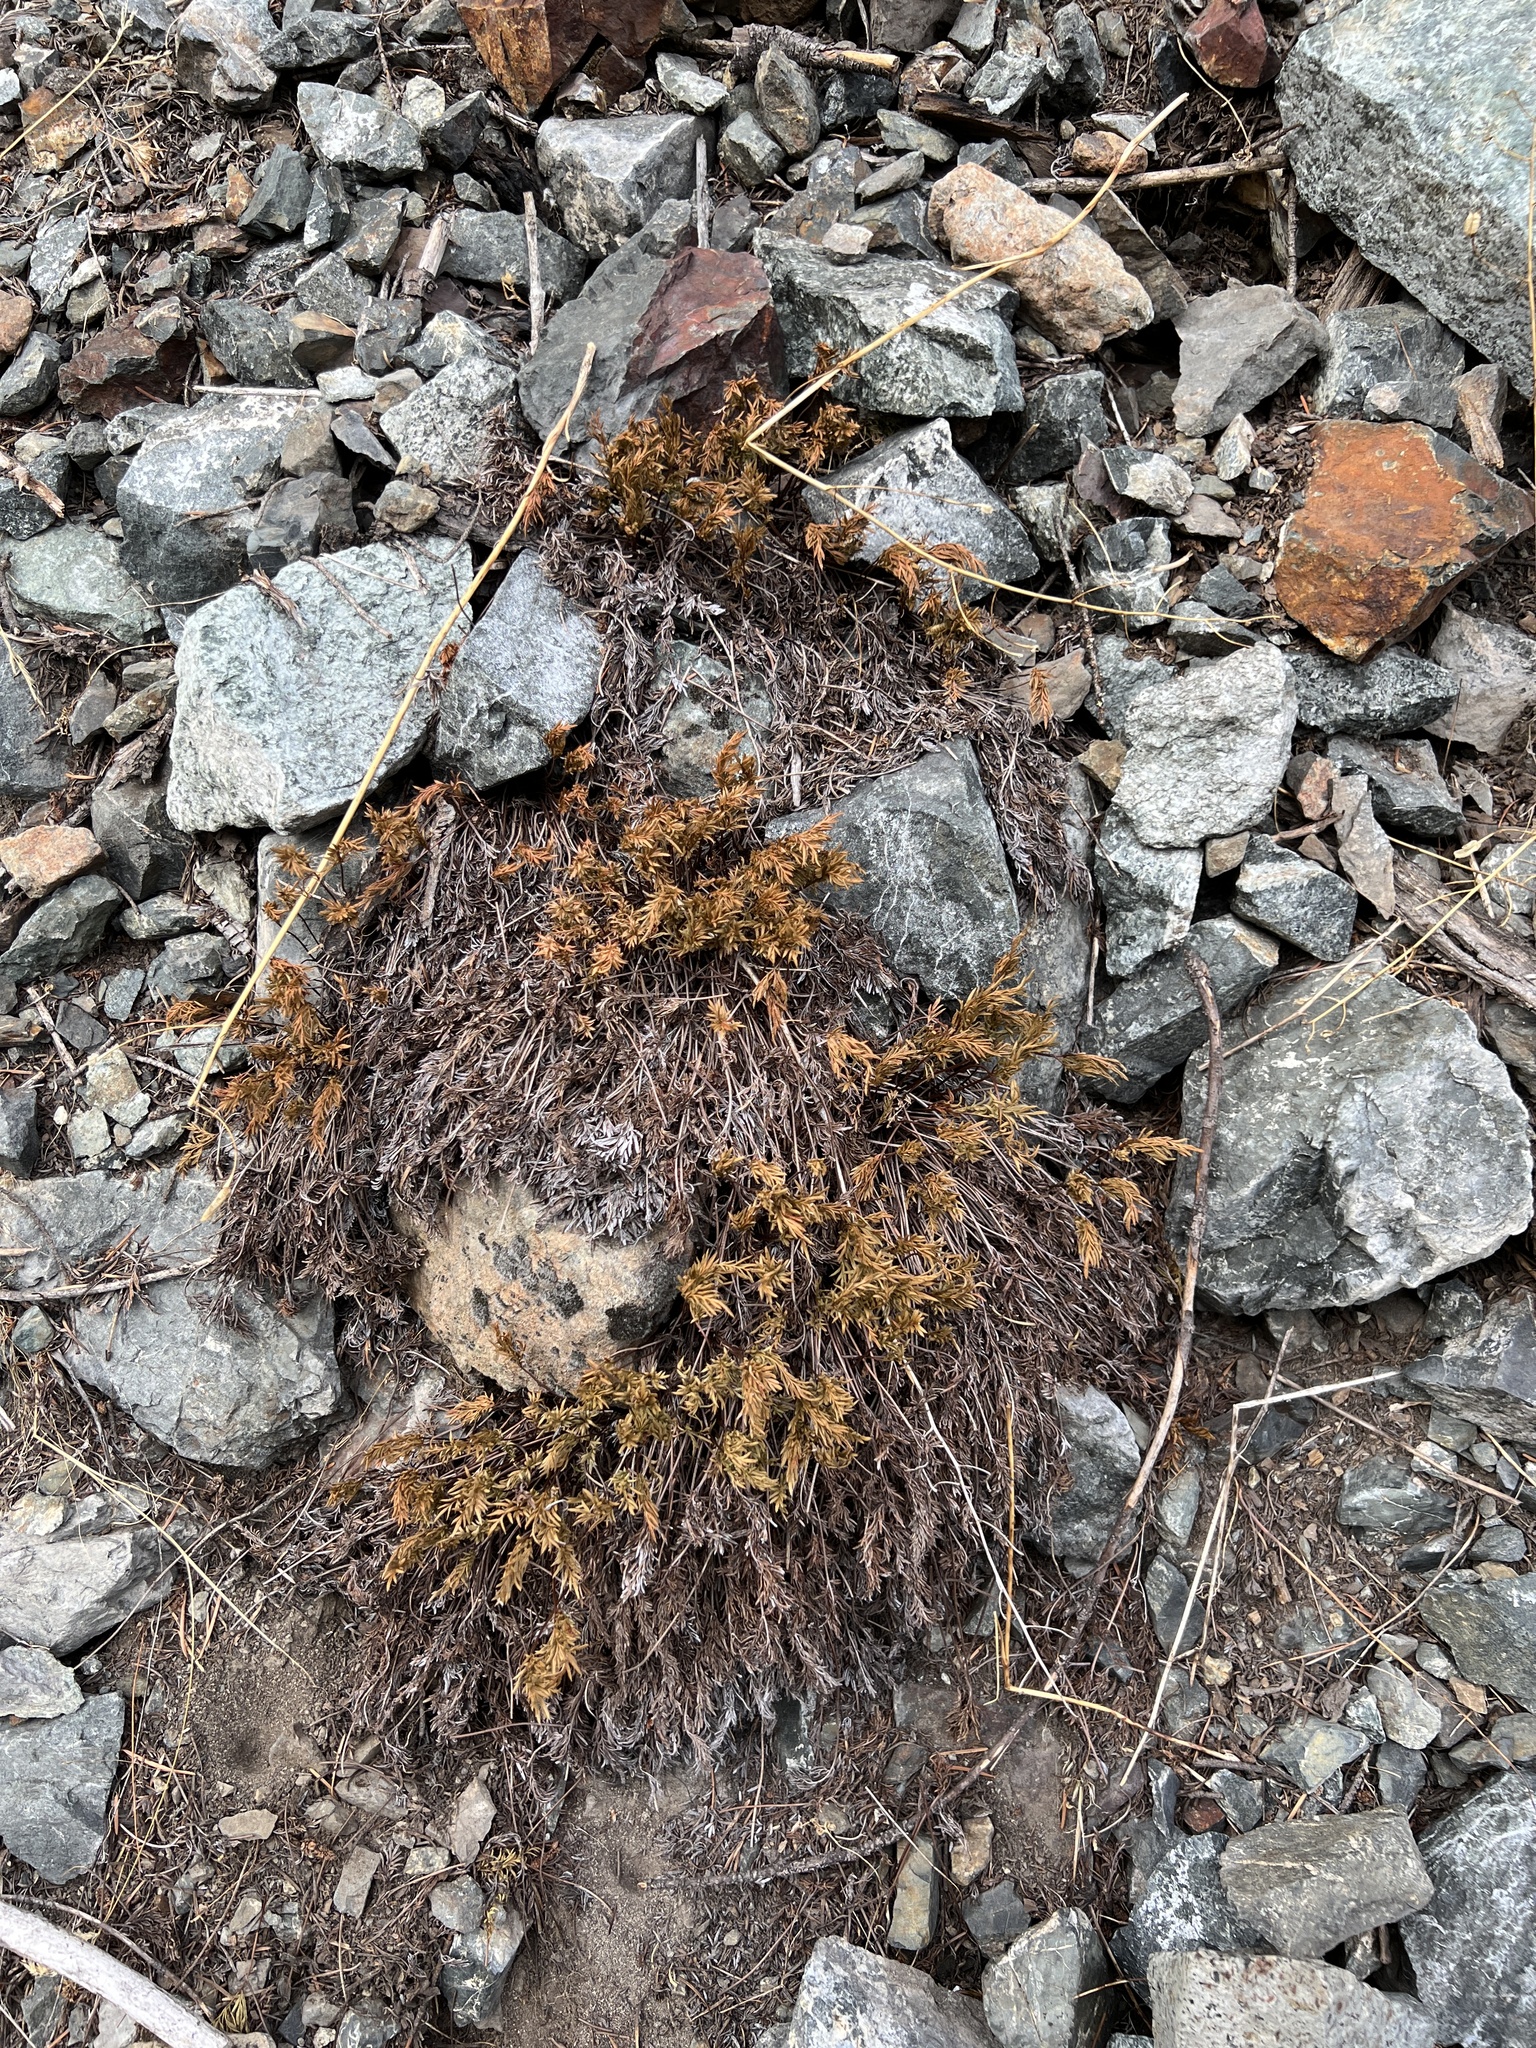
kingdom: Plantae
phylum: Tracheophyta
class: Polypodiopsida
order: Polypodiales
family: Pteridaceae
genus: Aspidotis
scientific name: Aspidotis densa
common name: Indian's dream
